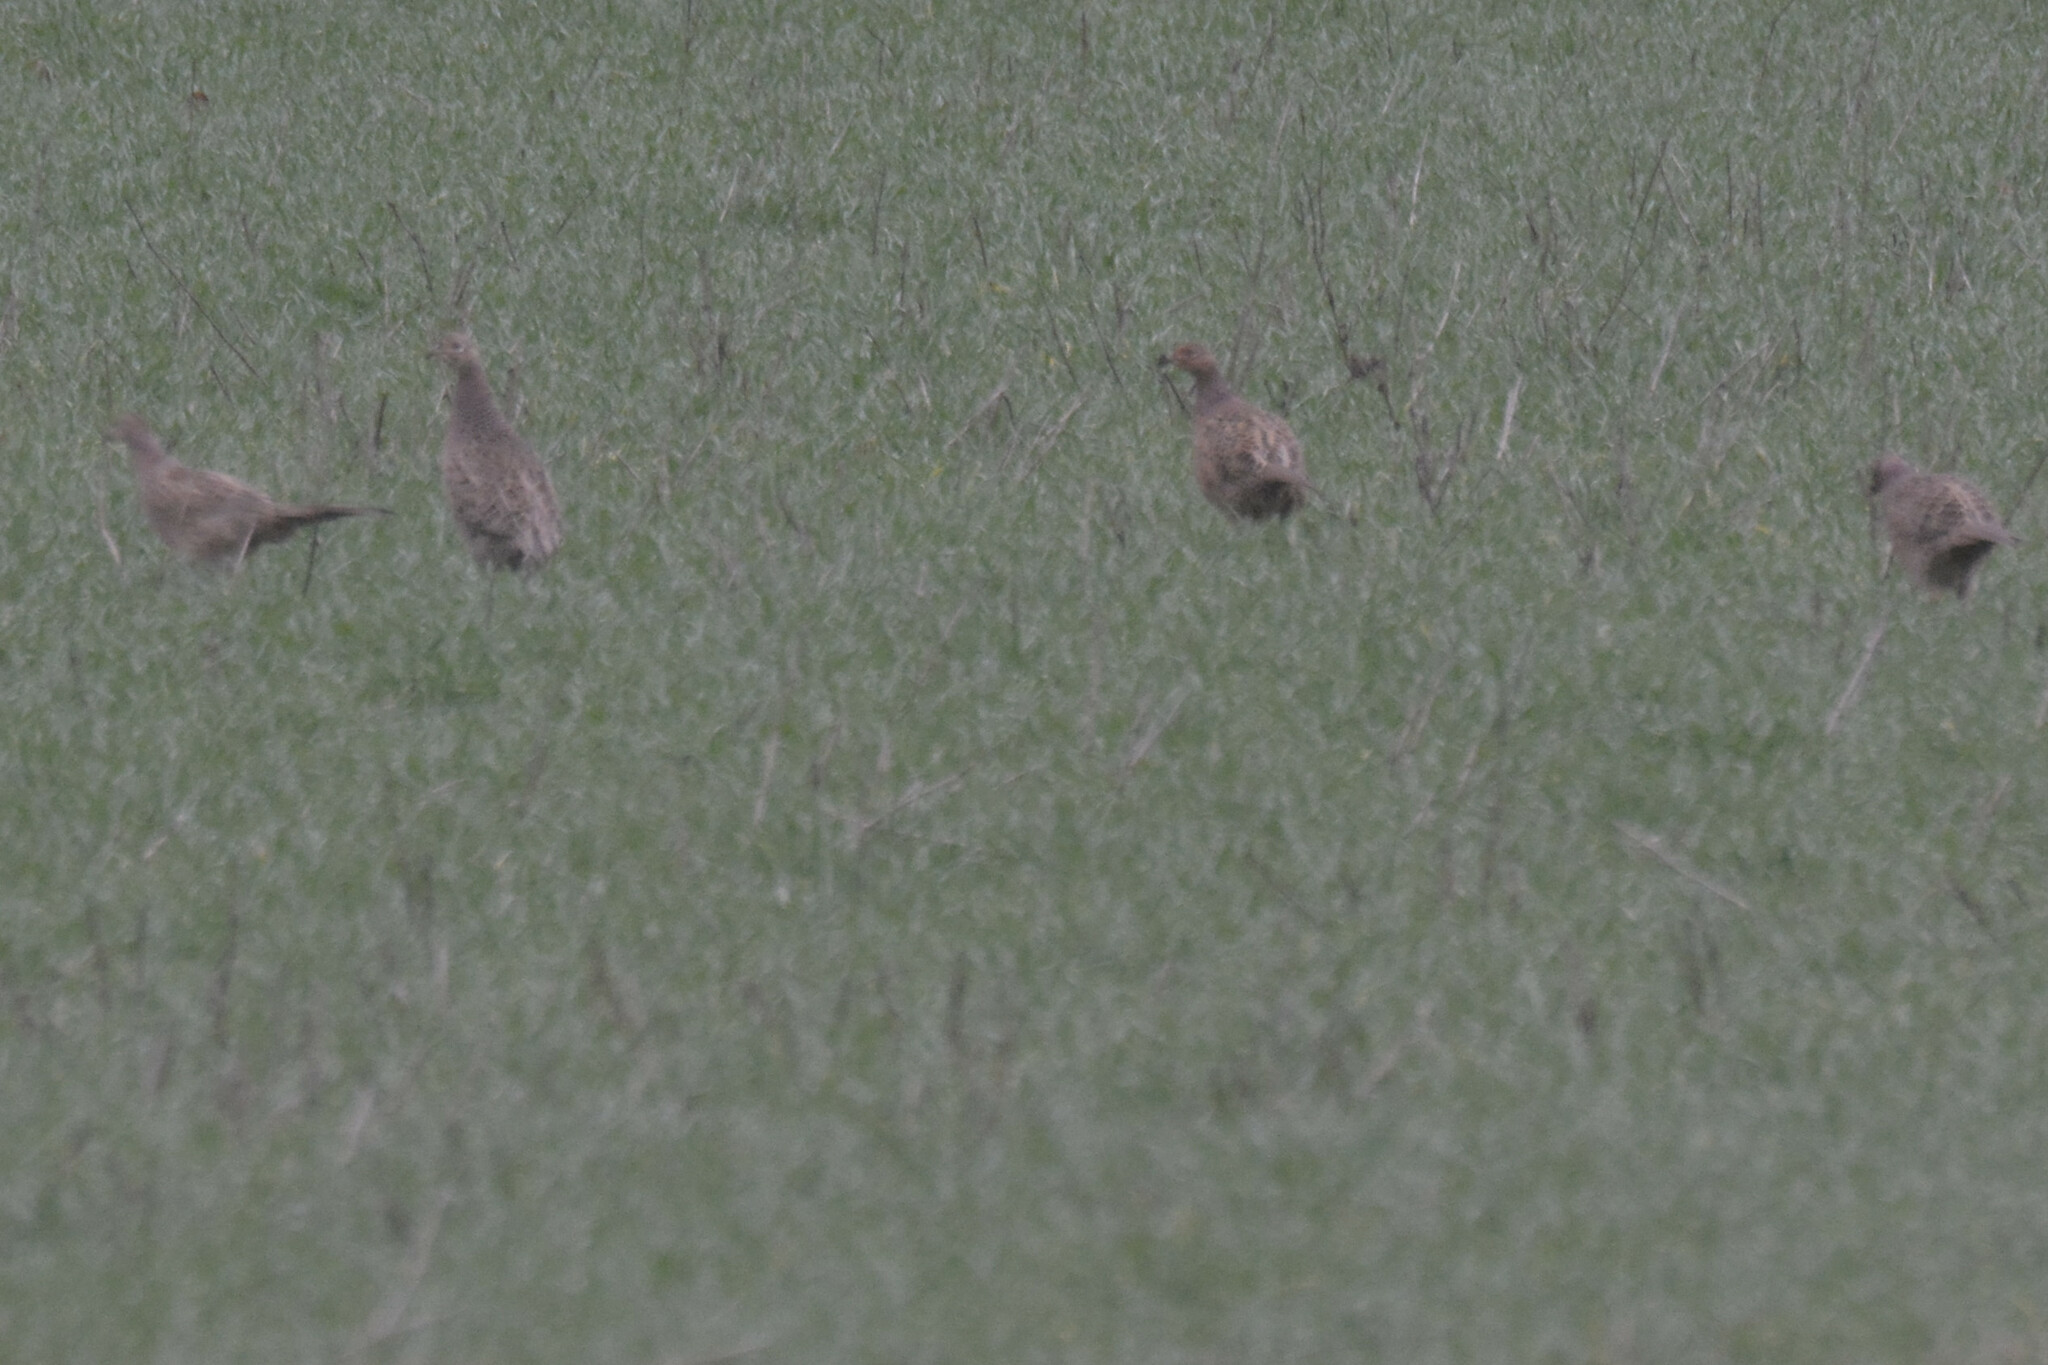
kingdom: Animalia
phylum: Chordata
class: Aves
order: Galliformes
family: Phasianidae
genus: Phasianus
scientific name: Phasianus colchicus
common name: Common pheasant
